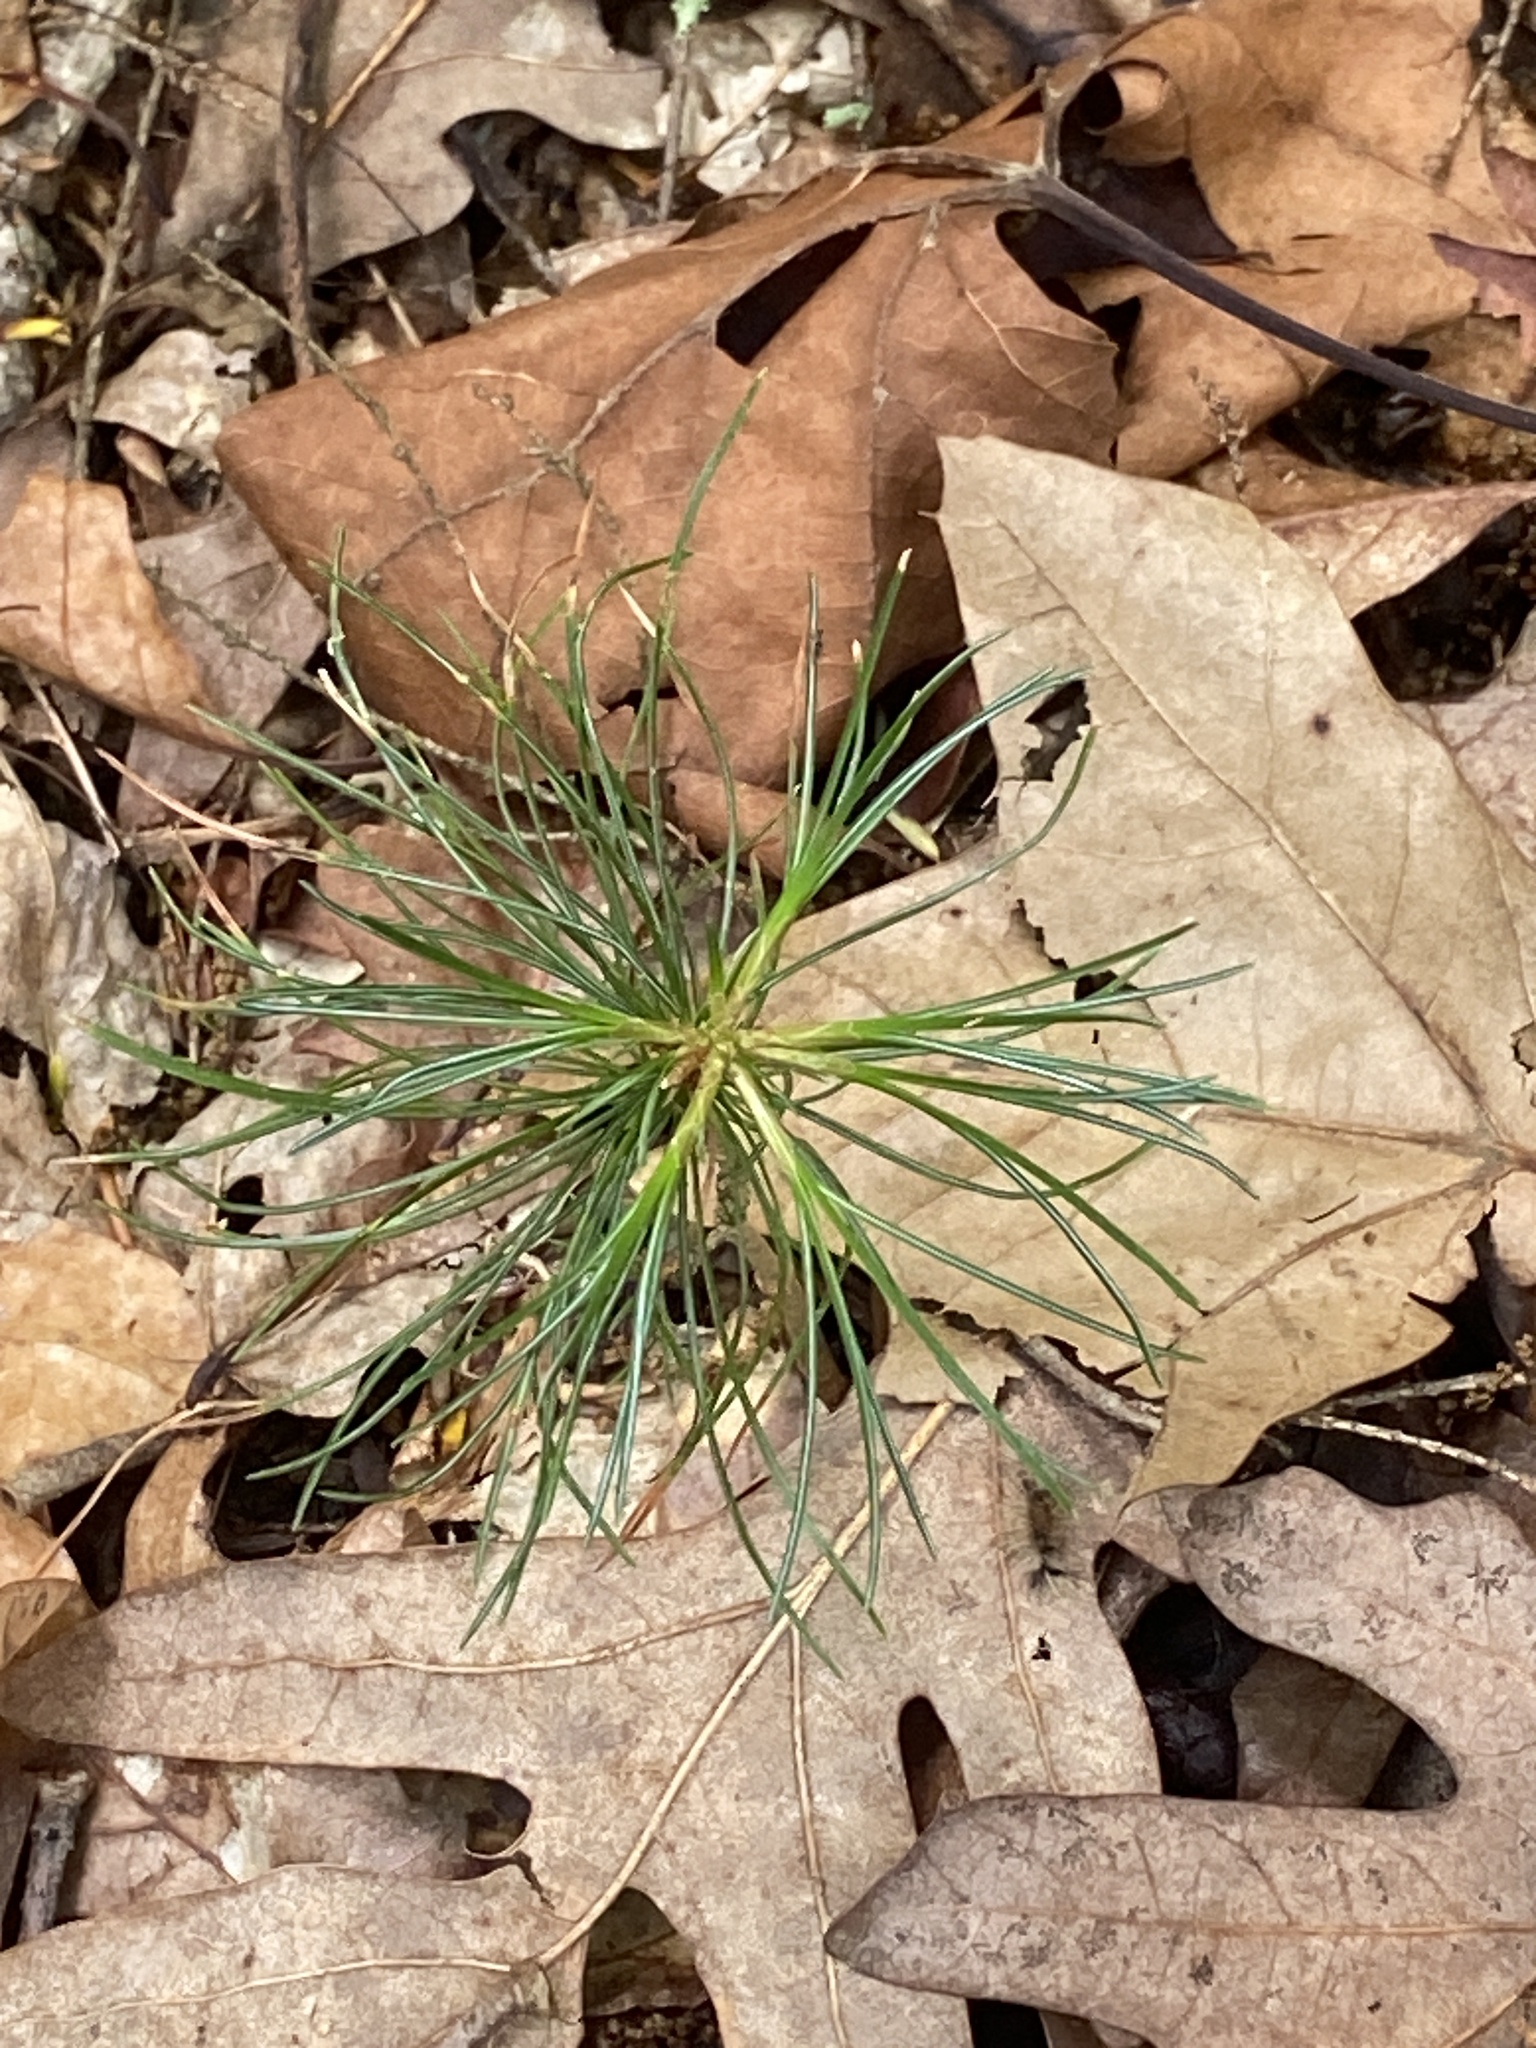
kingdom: Plantae
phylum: Tracheophyta
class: Pinopsida
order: Pinales
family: Pinaceae
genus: Pinus
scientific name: Pinus strobus
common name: Weymouth pine
